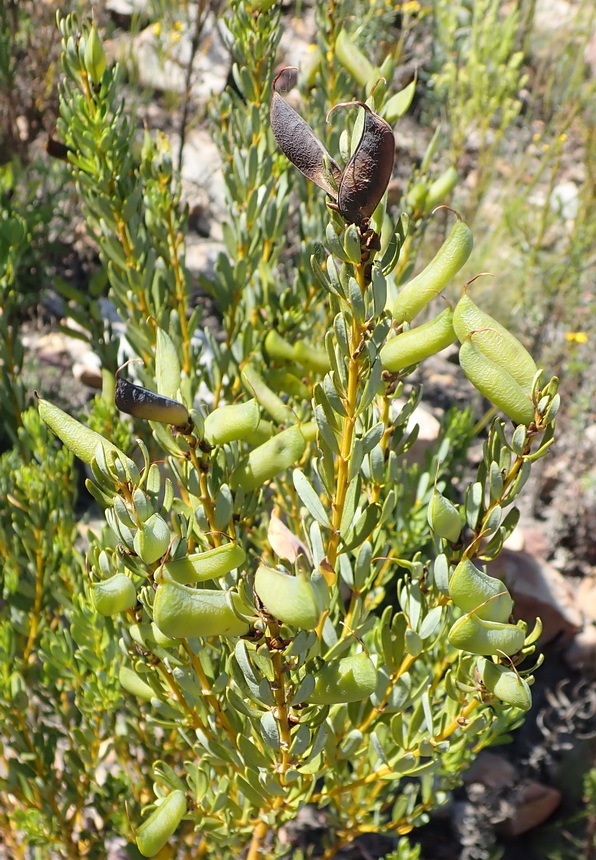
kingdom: Plantae
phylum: Tracheophyta
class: Magnoliopsida
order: Fabales
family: Fabaceae
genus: Cyclopia
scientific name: Cyclopia intermedia
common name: Mountain tea
